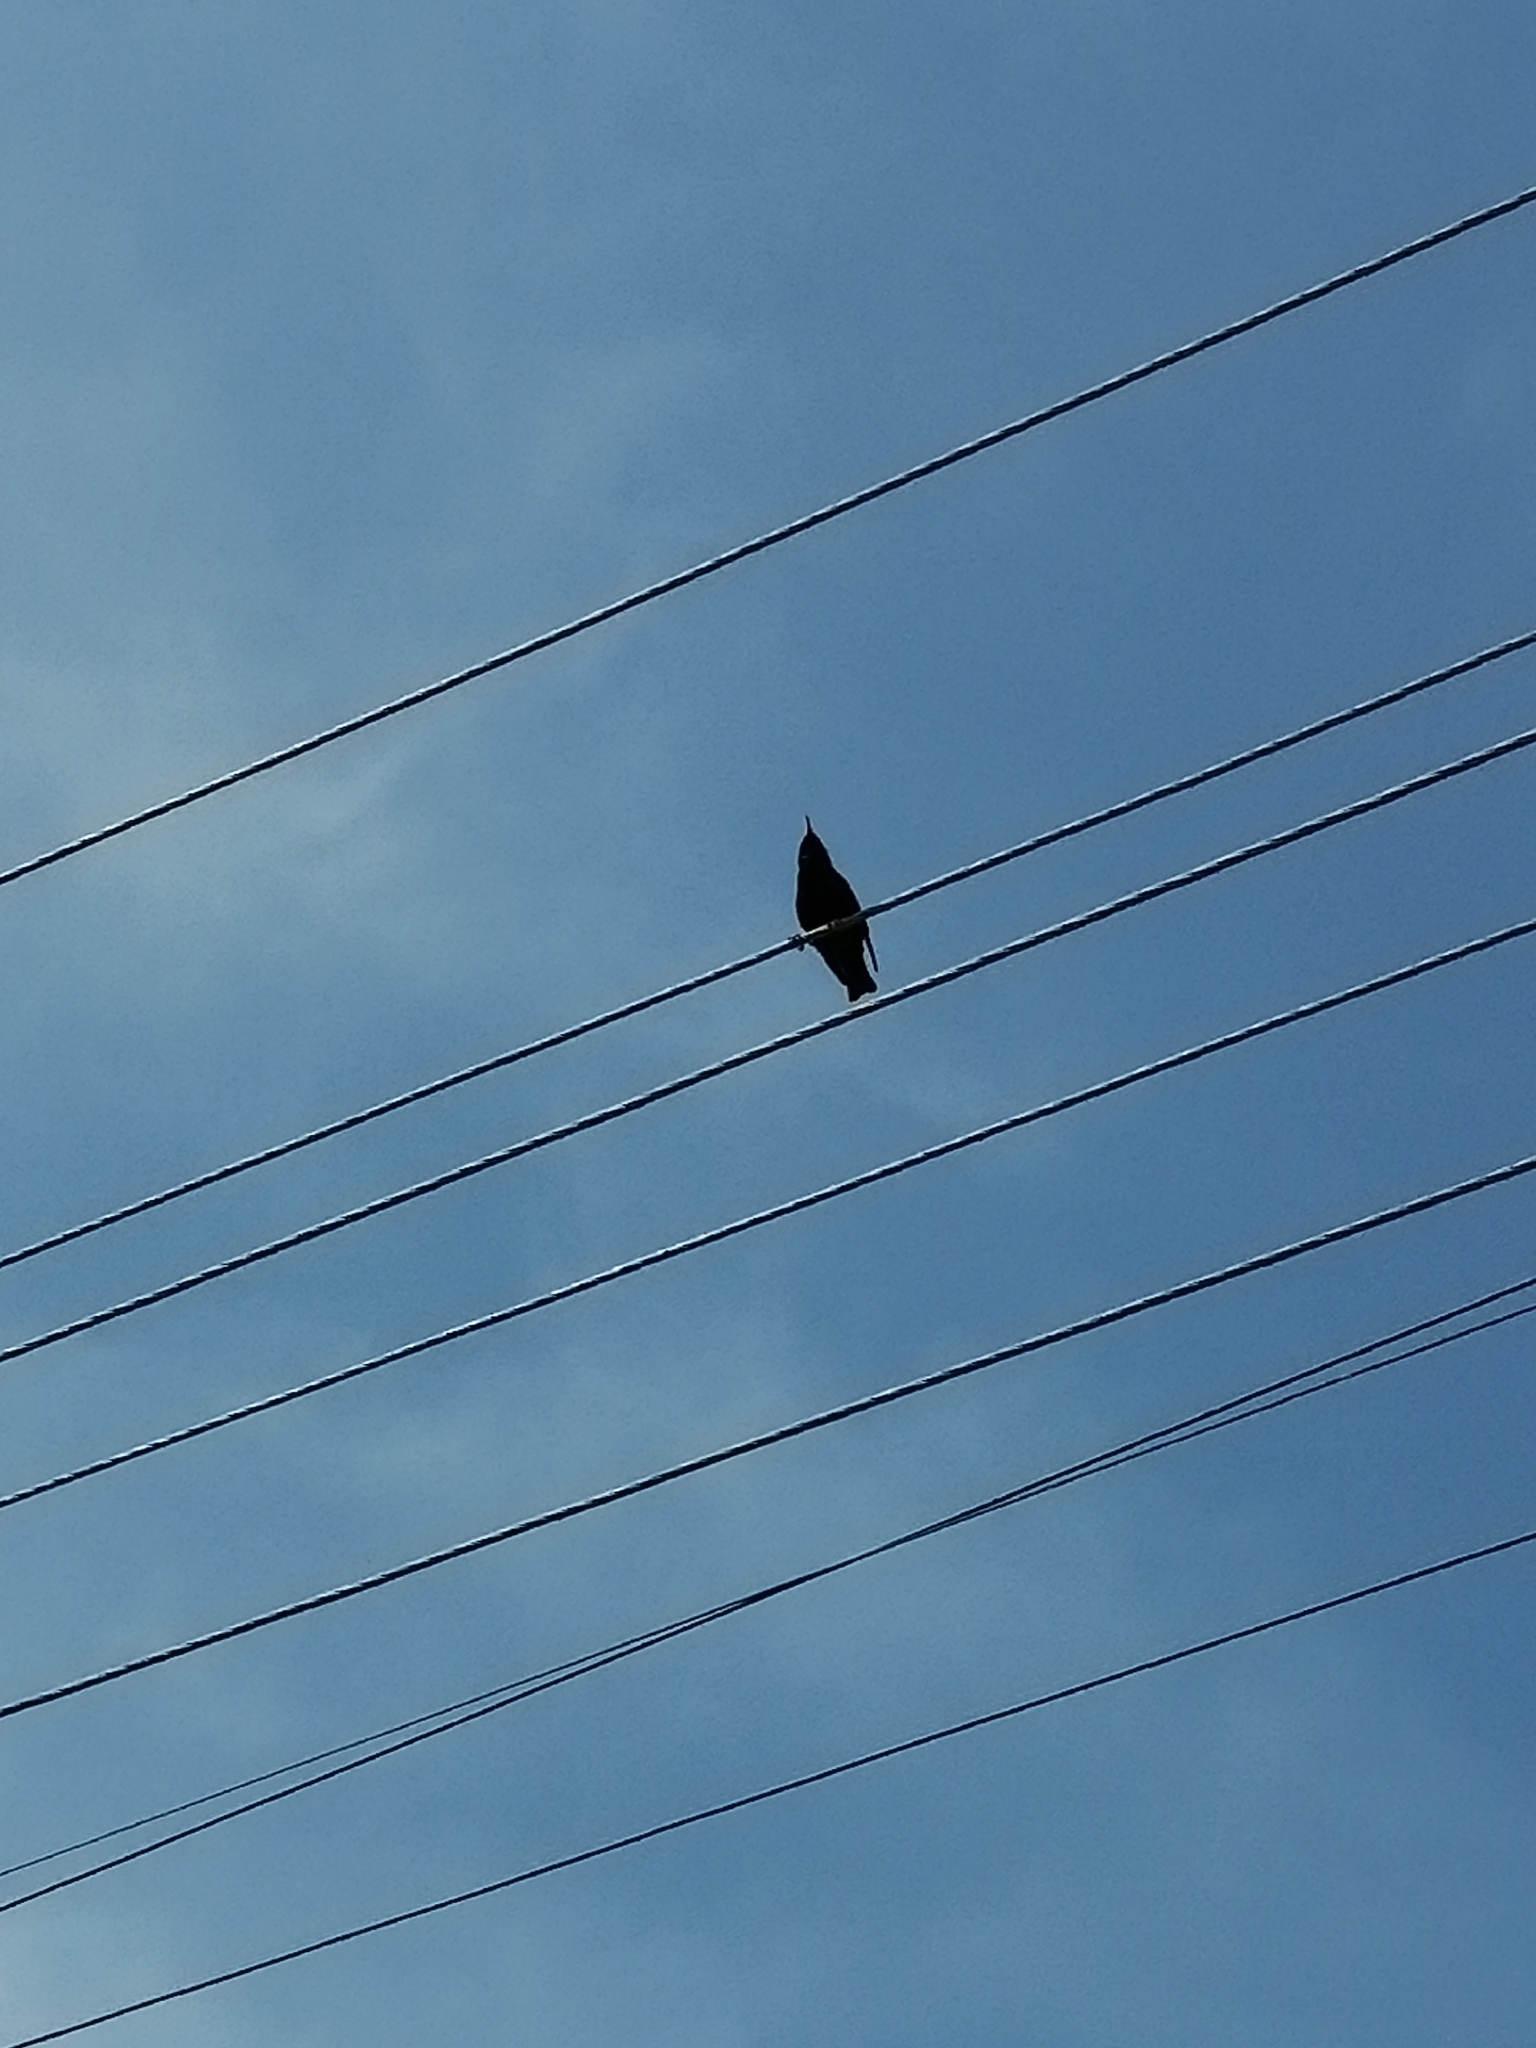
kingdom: Animalia
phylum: Chordata
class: Aves
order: Passeriformes
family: Sturnidae
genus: Sturnus
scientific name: Sturnus vulgaris
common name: Common starling
